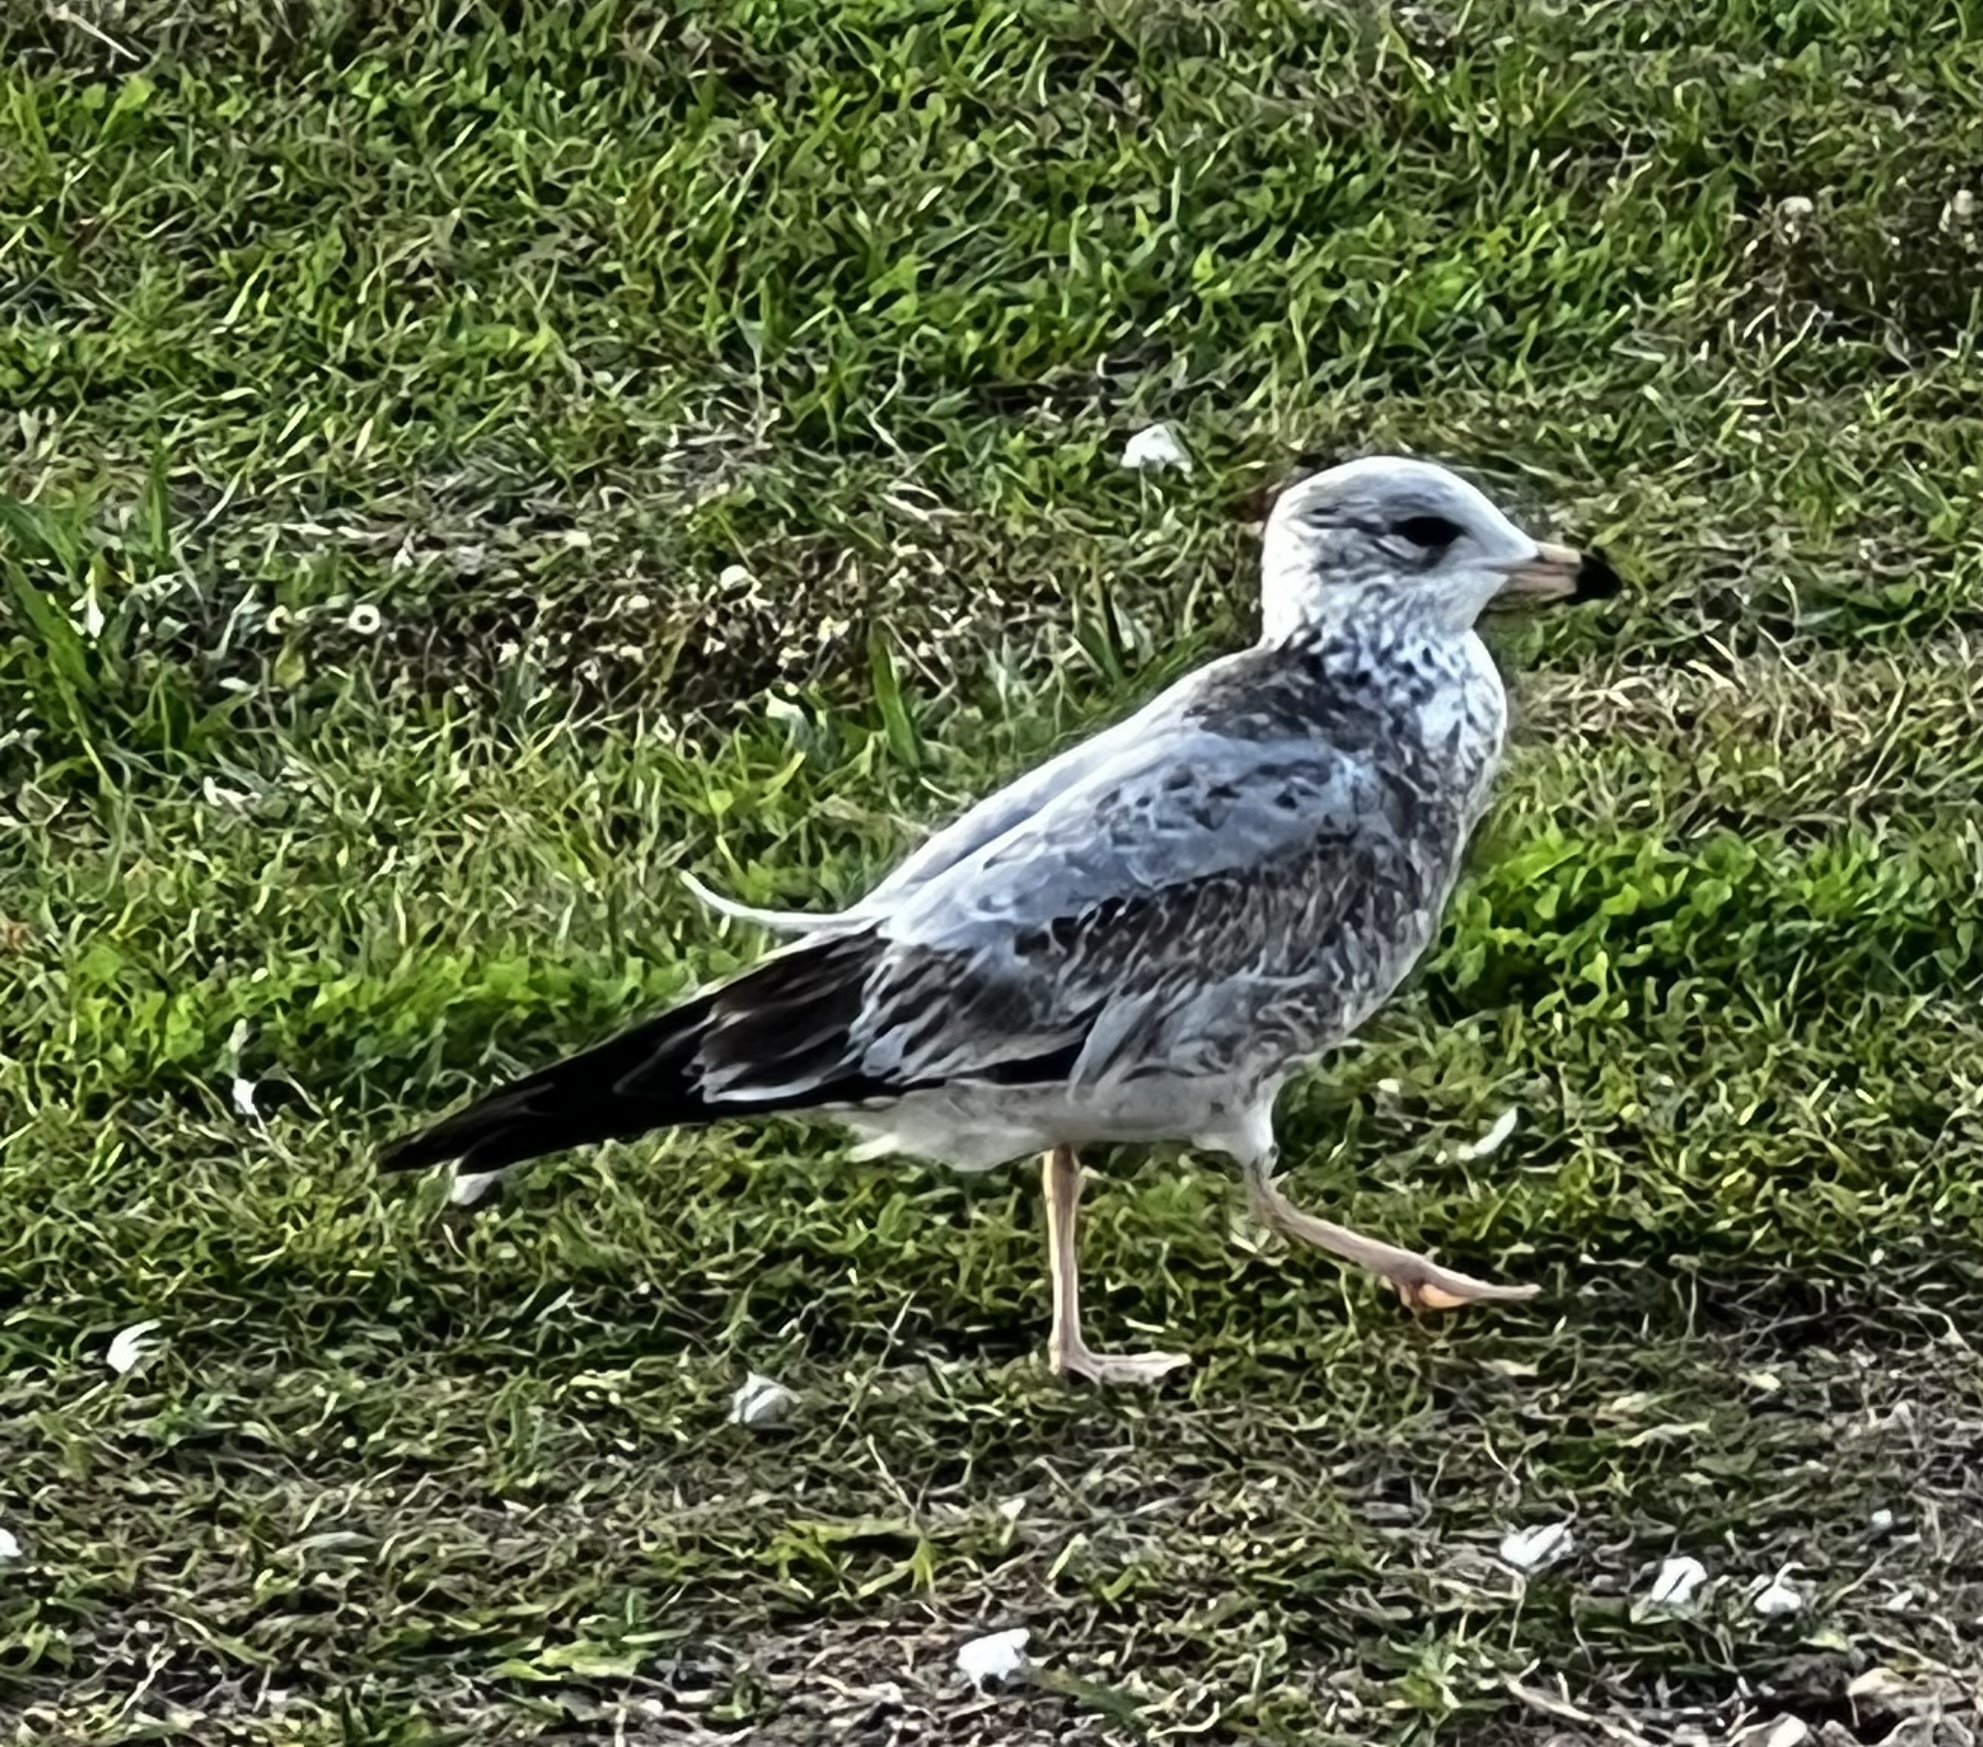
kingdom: Animalia
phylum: Chordata
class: Aves
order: Charadriiformes
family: Laridae
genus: Larus
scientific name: Larus delawarensis
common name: Ring-billed gull
